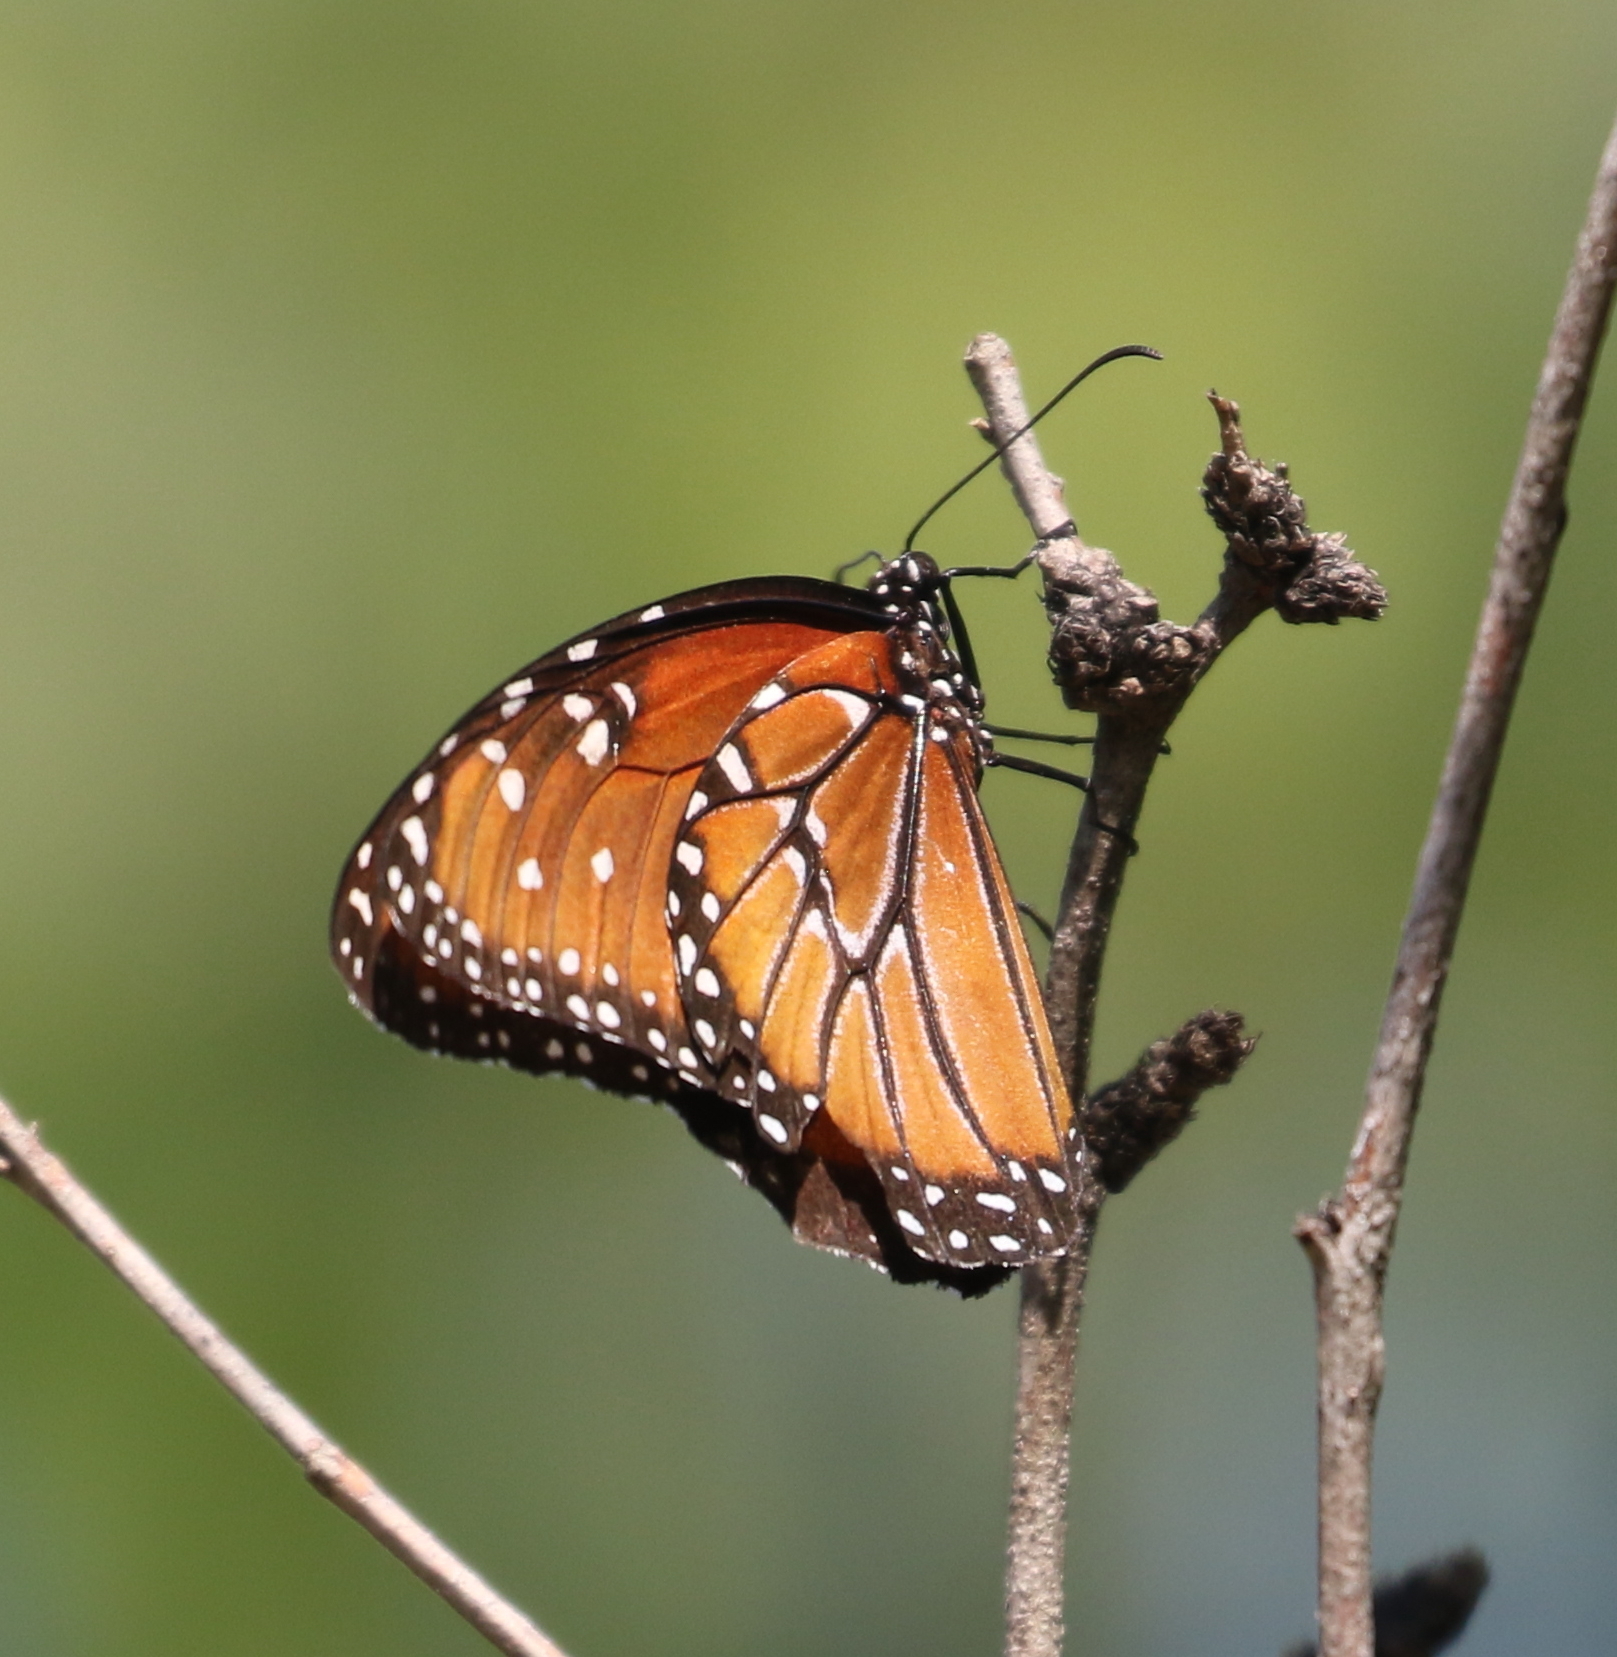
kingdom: Animalia
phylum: Arthropoda
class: Insecta
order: Lepidoptera
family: Nymphalidae
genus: Danaus
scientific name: Danaus gilippus
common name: Queen
